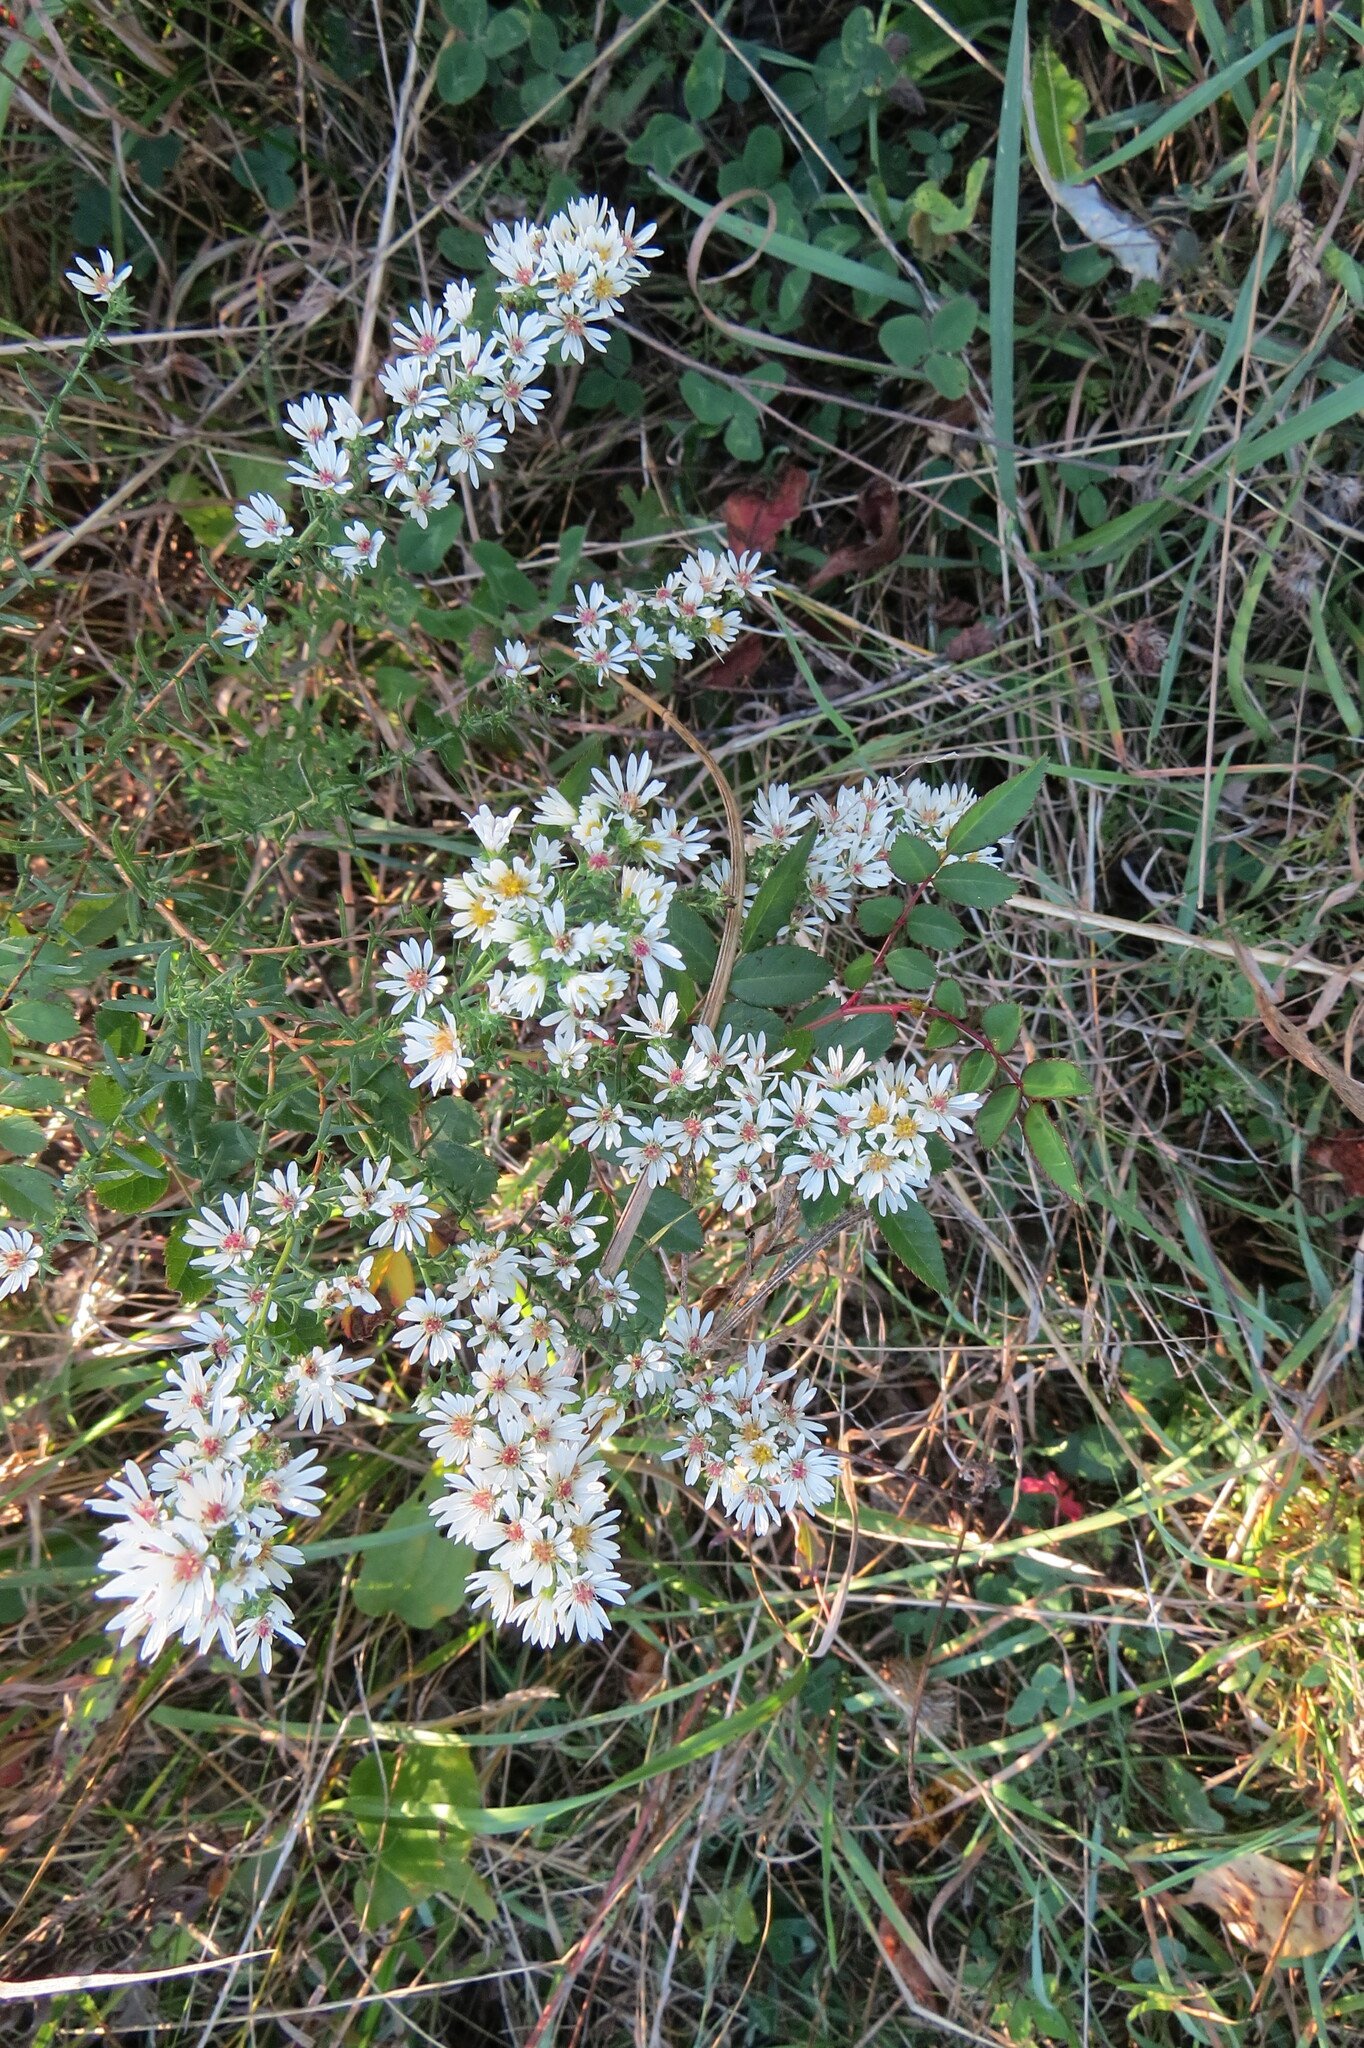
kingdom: Plantae
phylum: Tracheophyta
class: Magnoliopsida
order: Asterales
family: Asteraceae
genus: Symphyotrichum
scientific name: Symphyotrichum ericoides
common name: Heath aster
